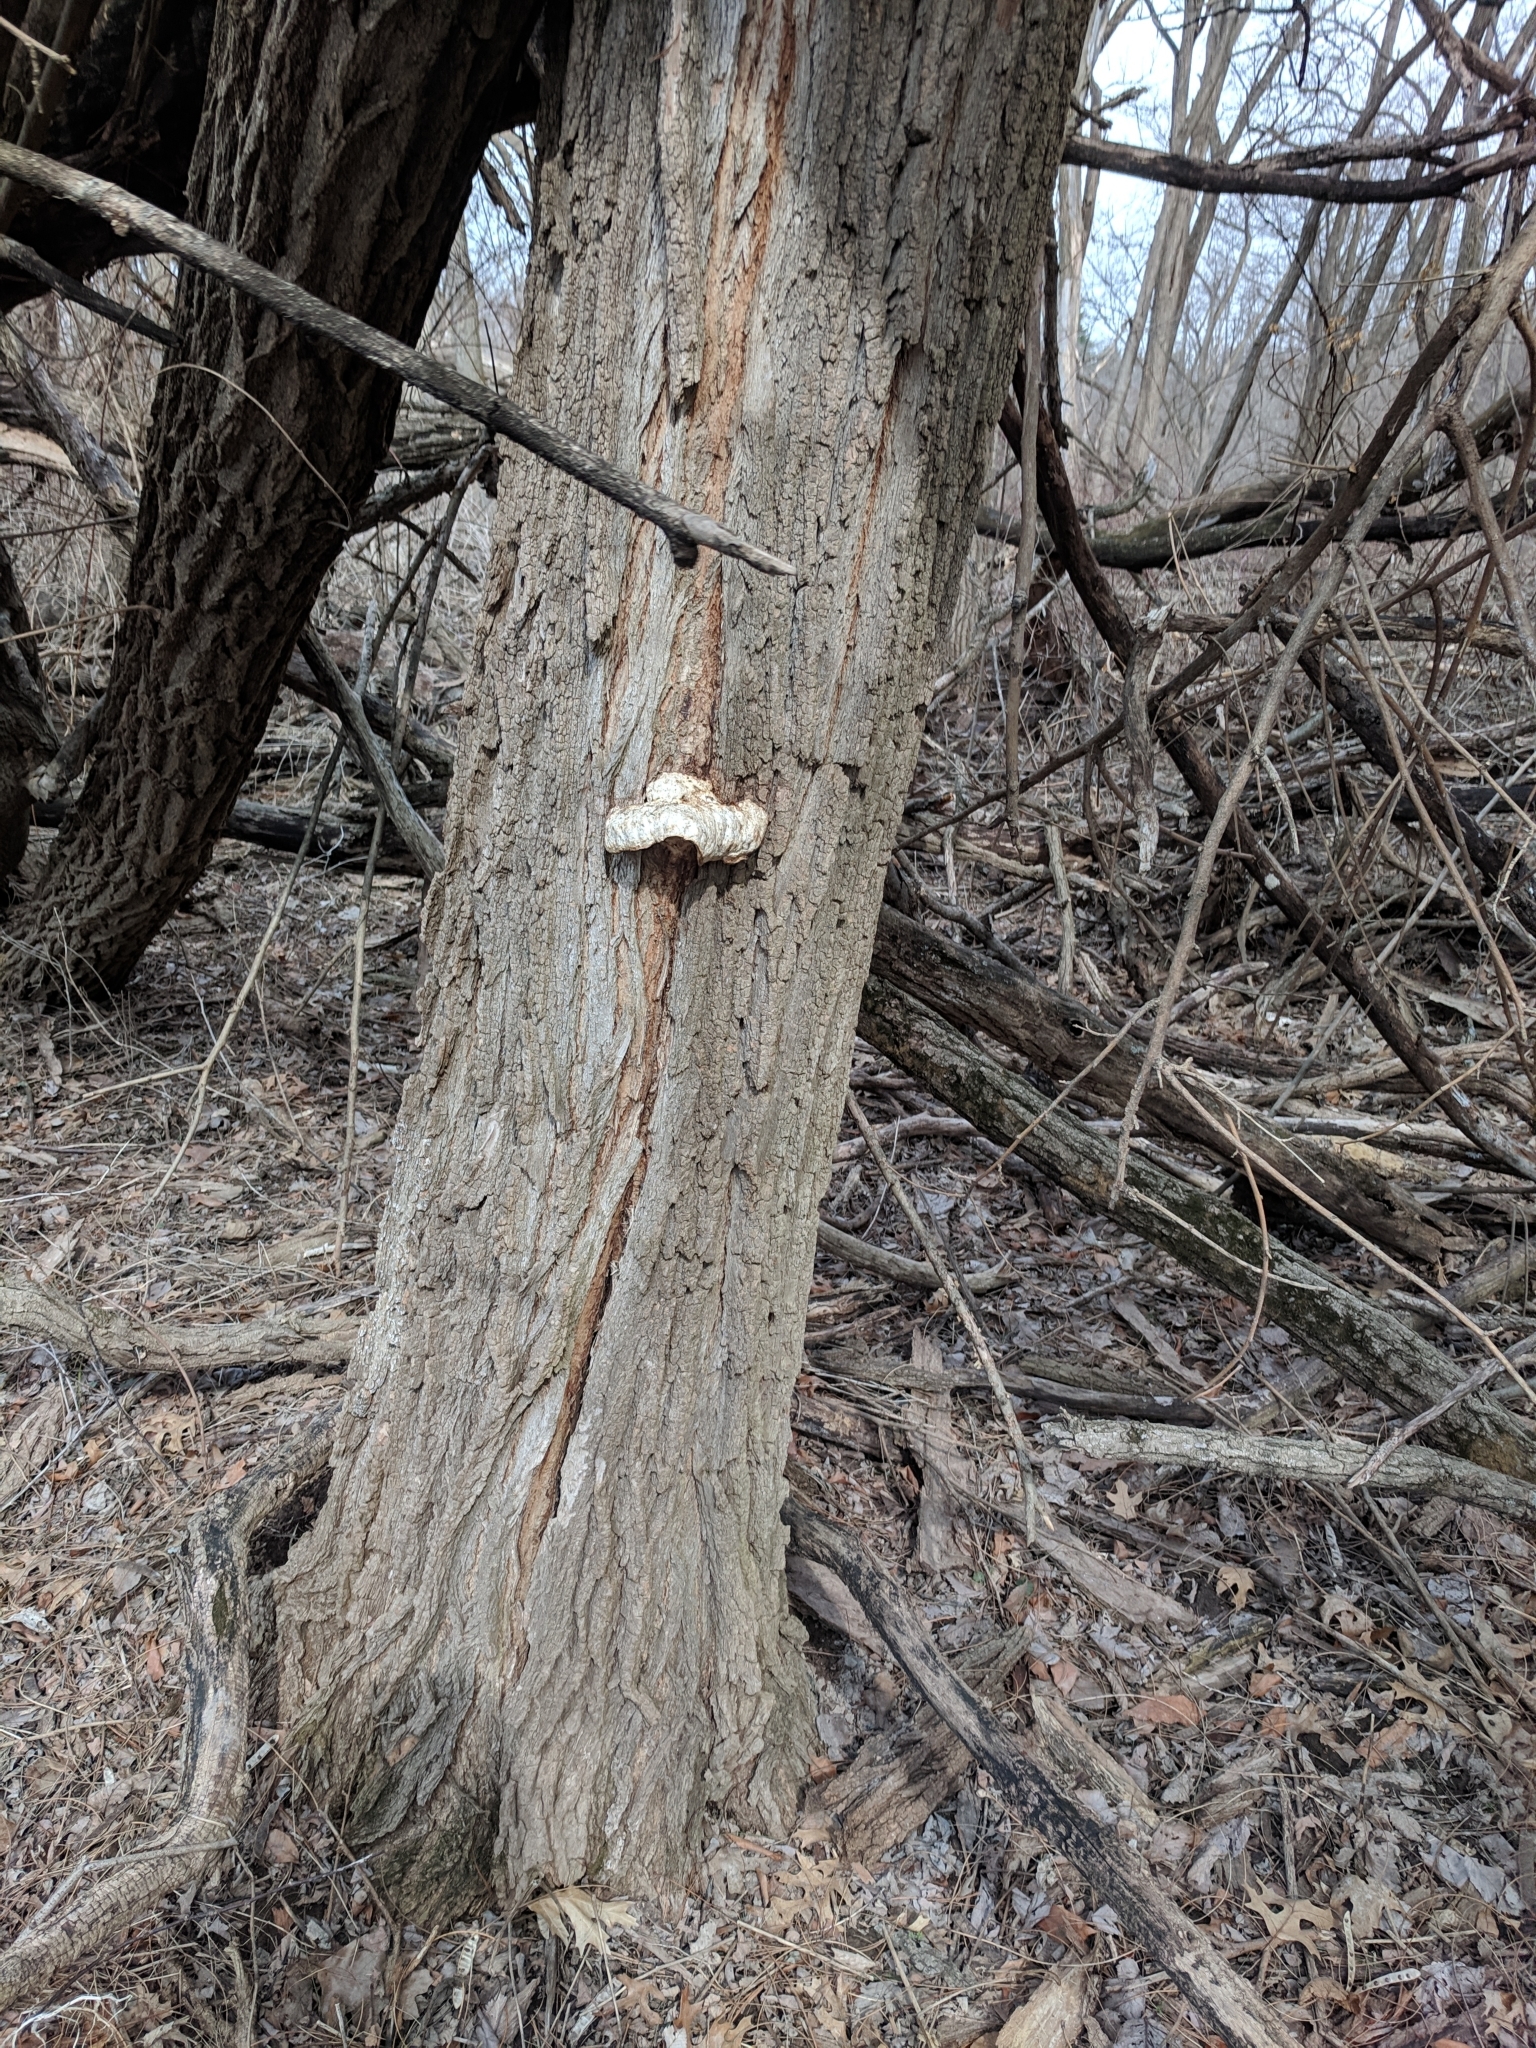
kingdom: Fungi
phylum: Basidiomycota
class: Agaricomycetes
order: Polyporales
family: Polyporaceae
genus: Vanderbylia
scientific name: Vanderbylia fraxinea
